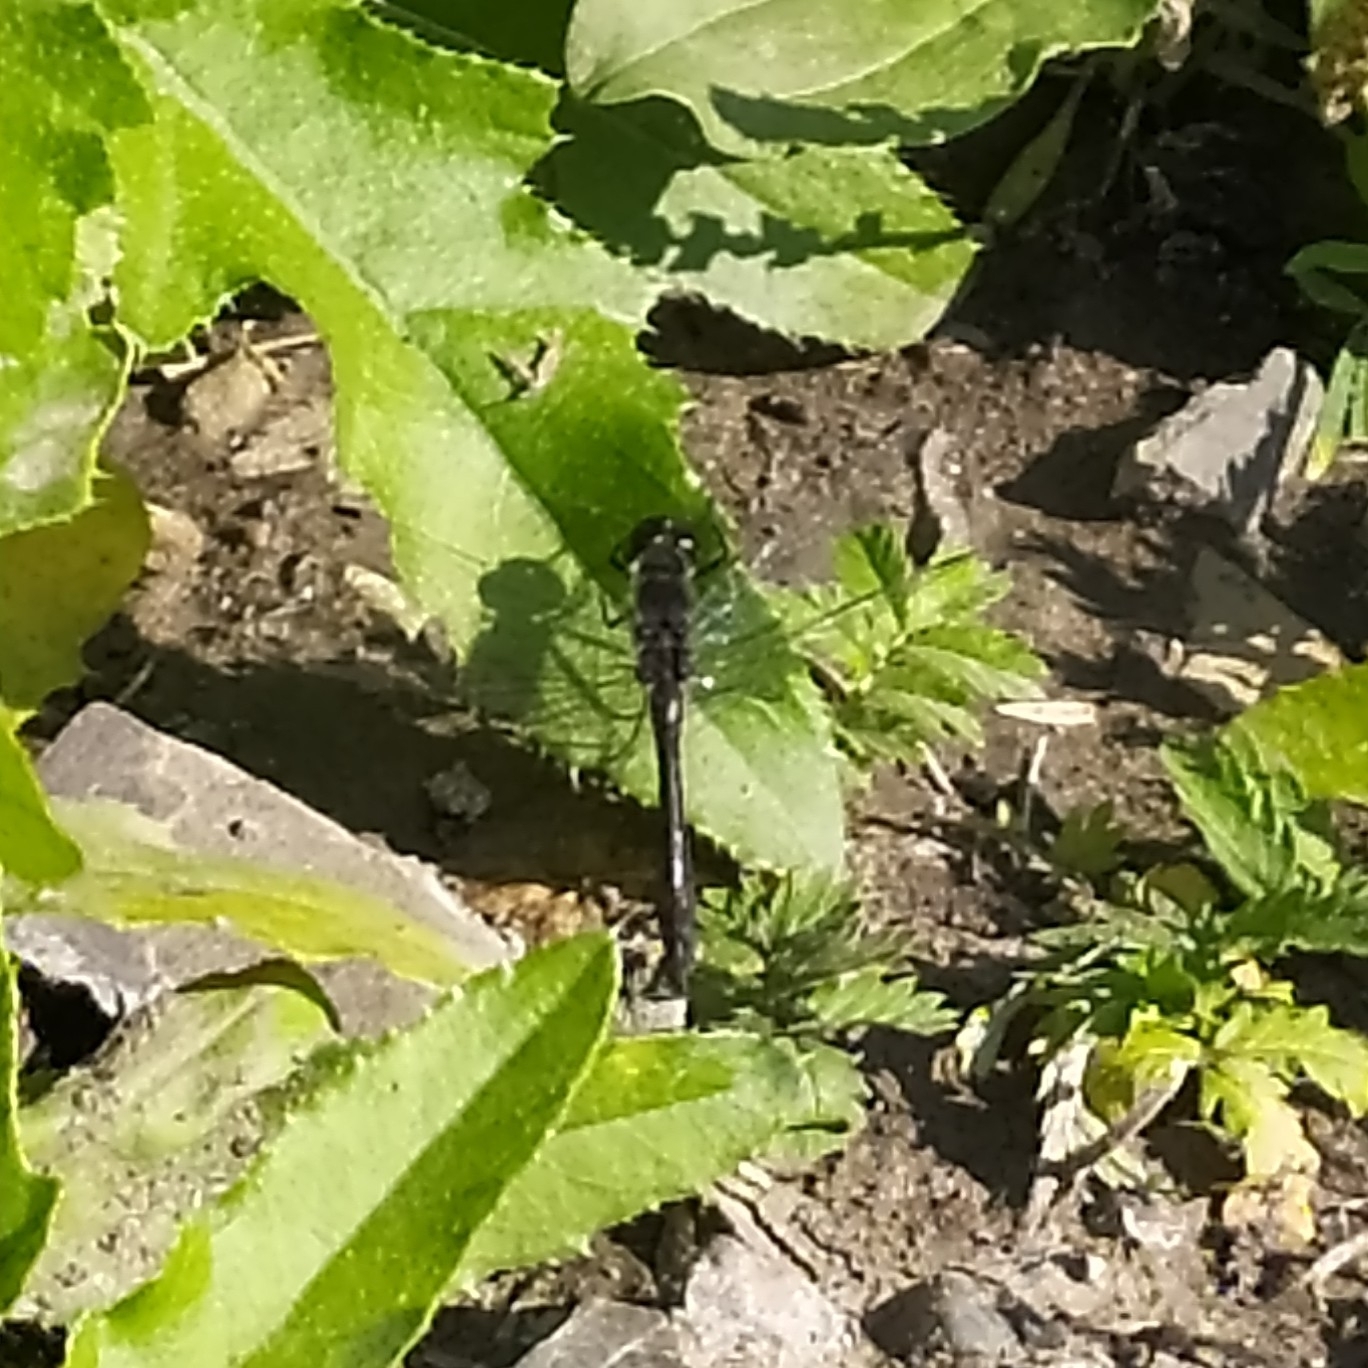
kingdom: Animalia
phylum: Arthropoda
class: Insecta
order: Odonata
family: Libellulidae
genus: Sympetrum
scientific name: Sympetrum danae
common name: Black darter
